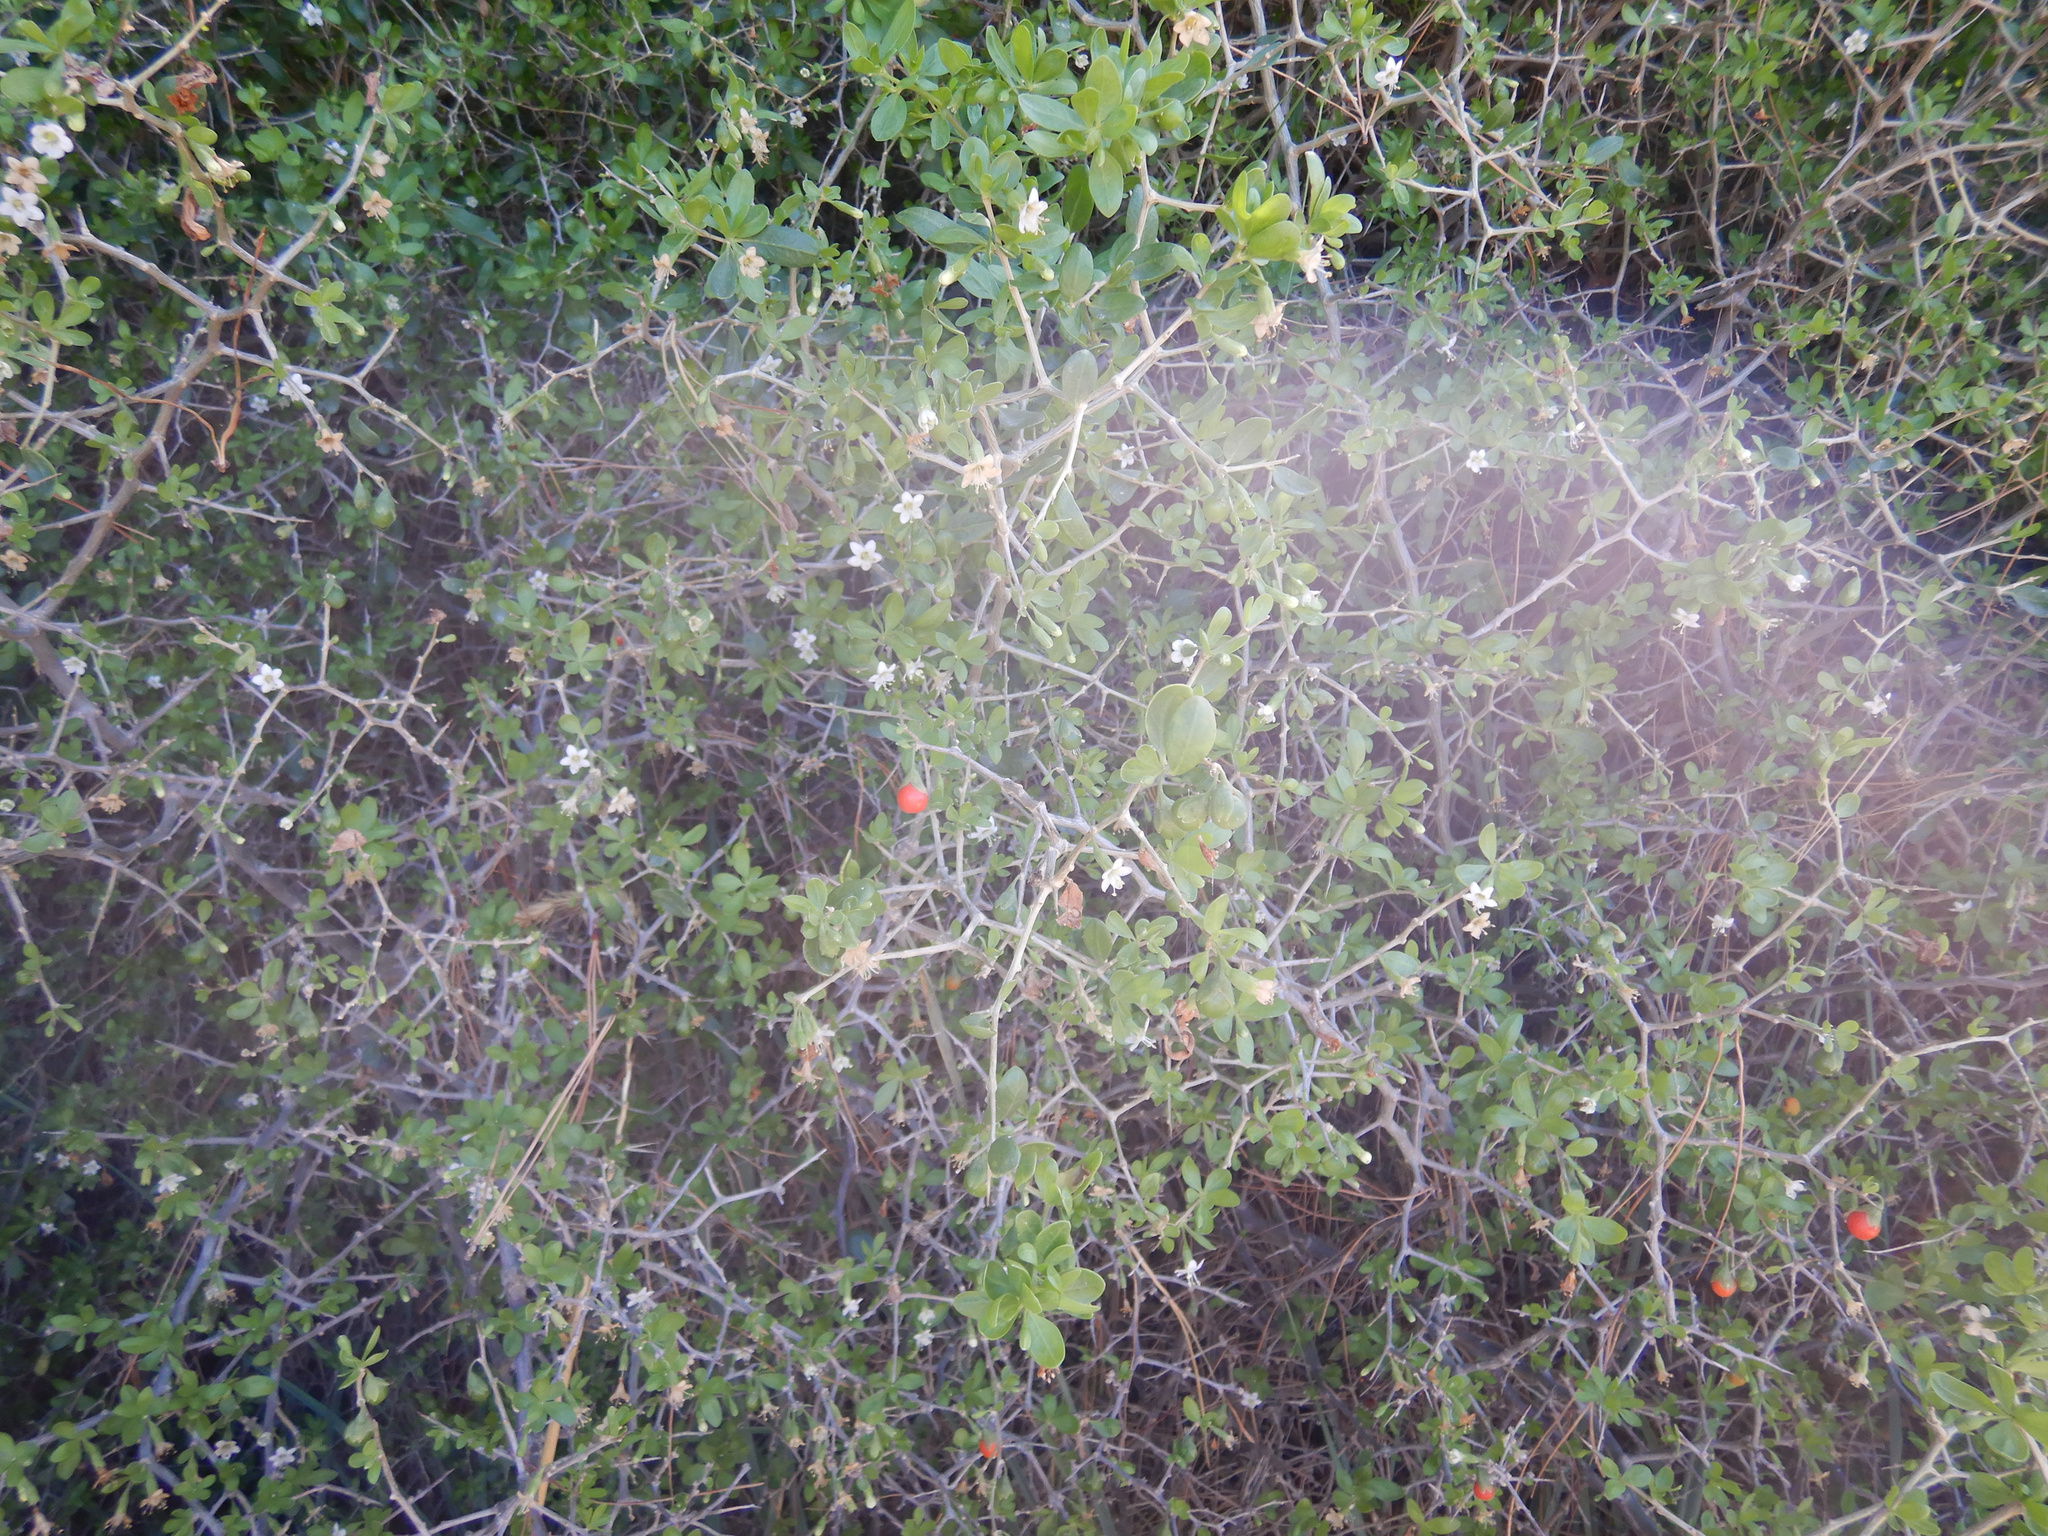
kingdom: Plantae
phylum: Tracheophyta
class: Magnoliopsida
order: Solanales
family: Solanaceae
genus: Lycium
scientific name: Lycium ferocissimum
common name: African boxthorn
